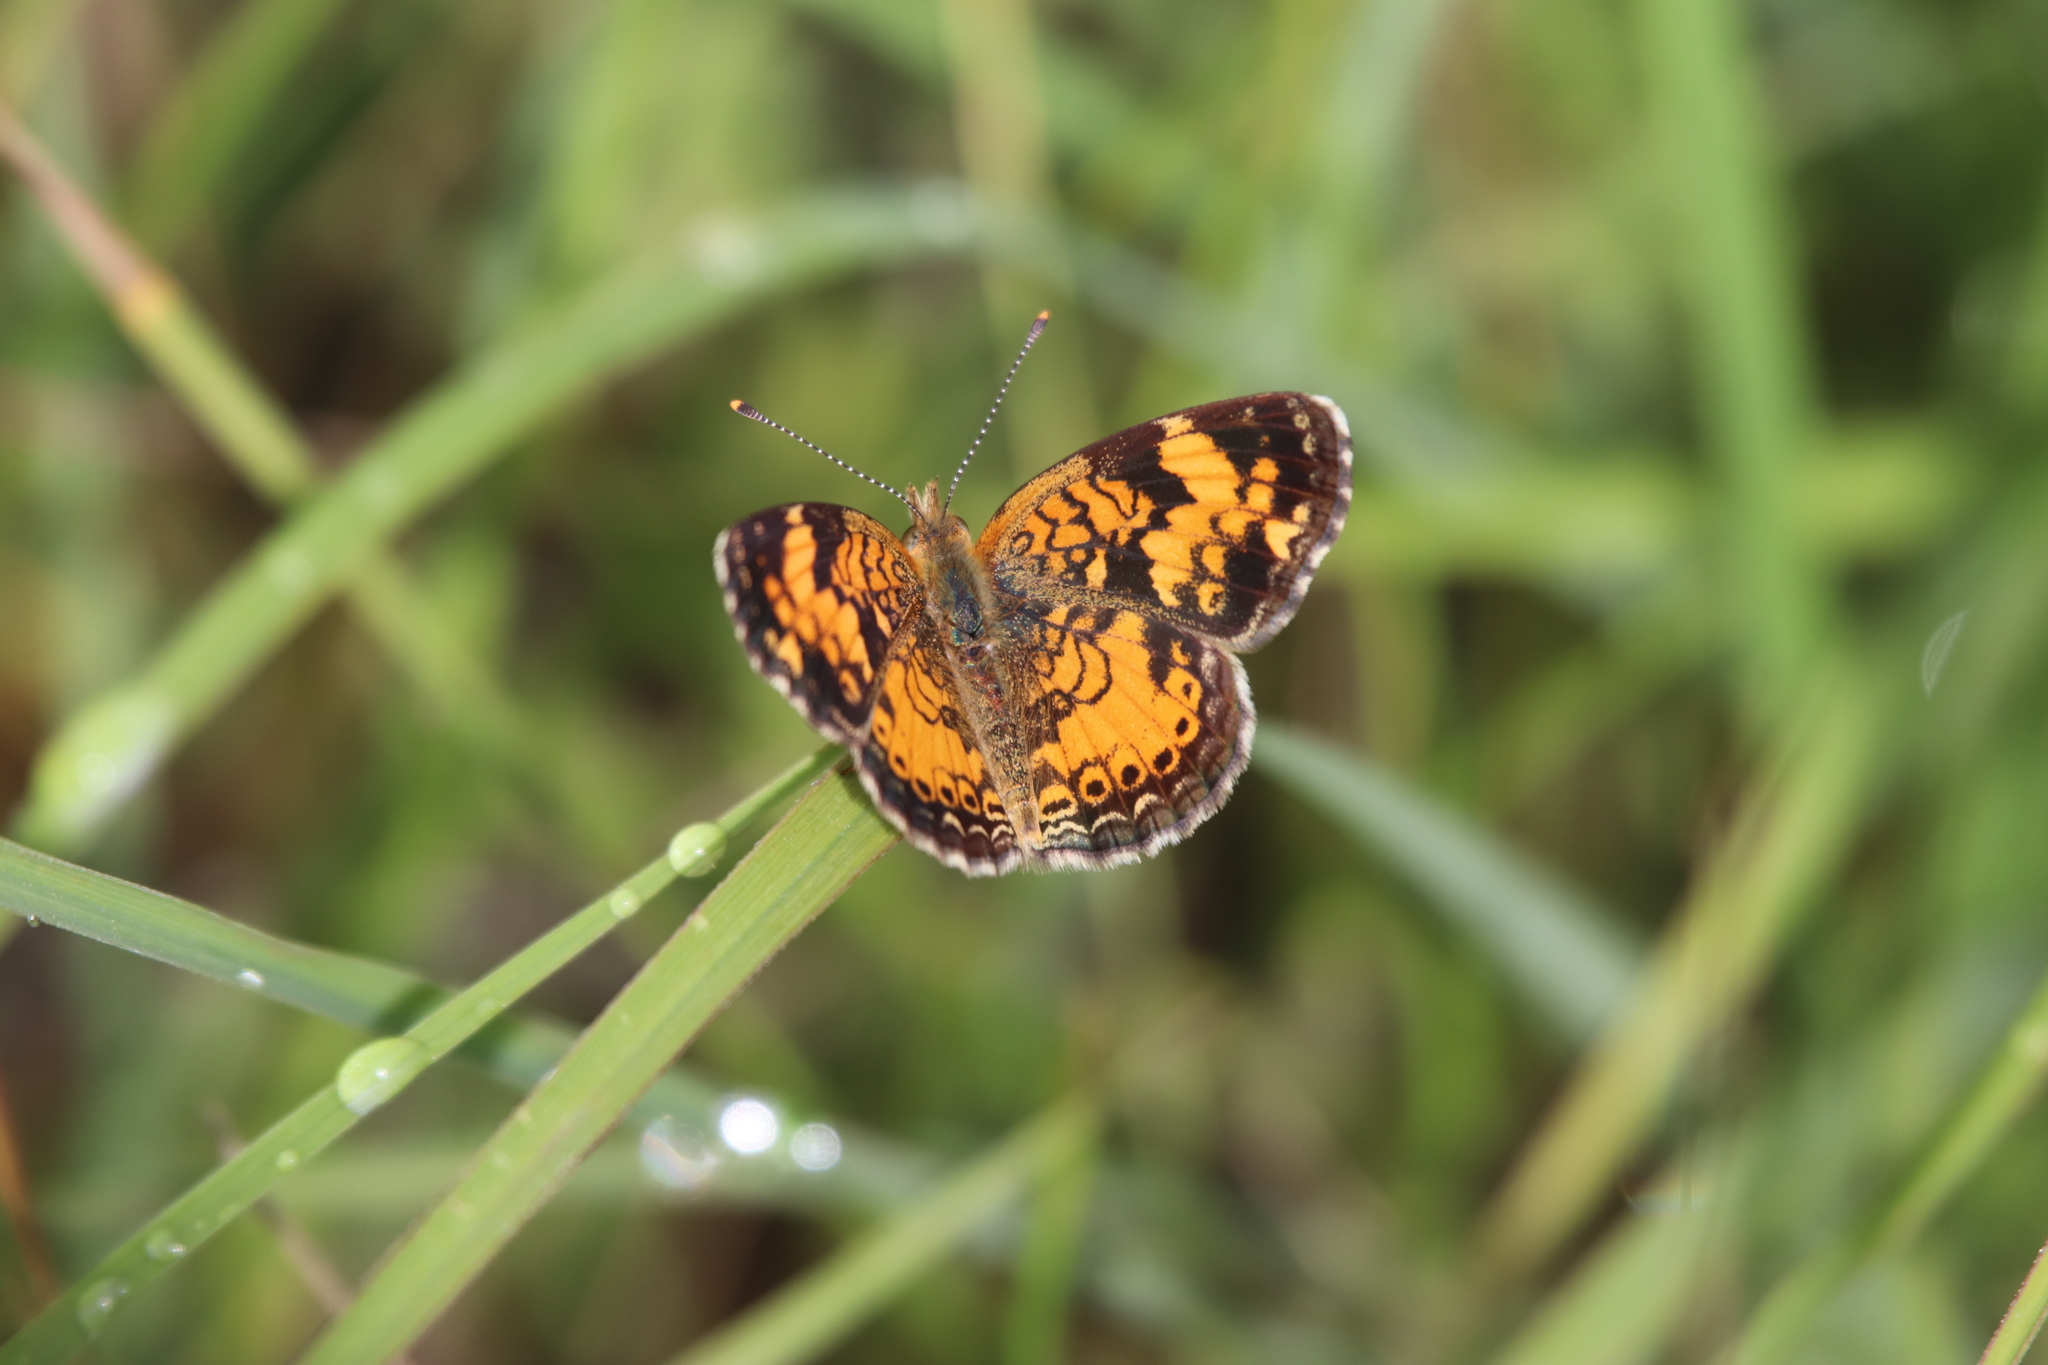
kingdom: Animalia
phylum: Arthropoda
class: Insecta
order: Lepidoptera
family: Nymphalidae
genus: Phyciodes
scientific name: Phyciodes tharos
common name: Pearl crescent
